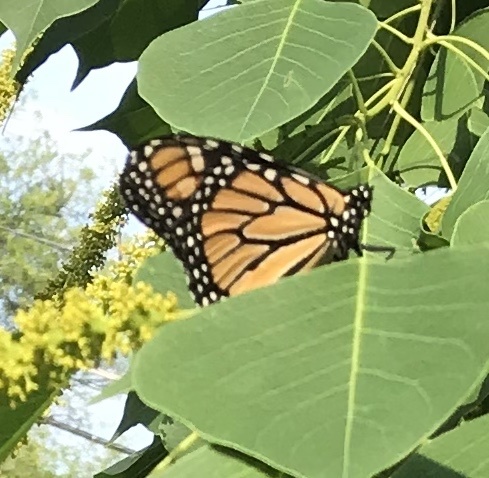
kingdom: Animalia
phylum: Arthropoda
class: Insecta
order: Lepidoptera
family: Nymphalidae
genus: Danaus
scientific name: Danaus plexippus
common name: Monarch
